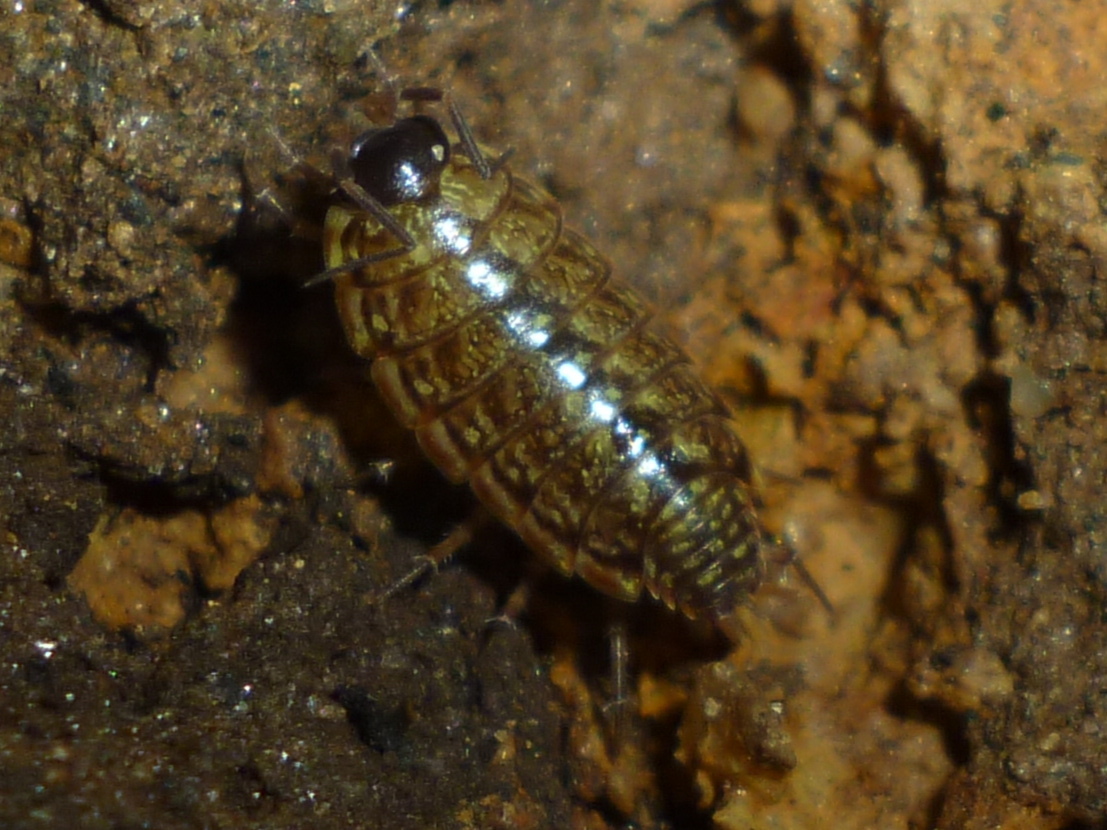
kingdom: Animalia
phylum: Arthropoda
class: Malacostraca
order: Isopoda
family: Philosciidae
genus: Philoscia
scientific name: Philoscia muscorum
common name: Common striped woodlouse
